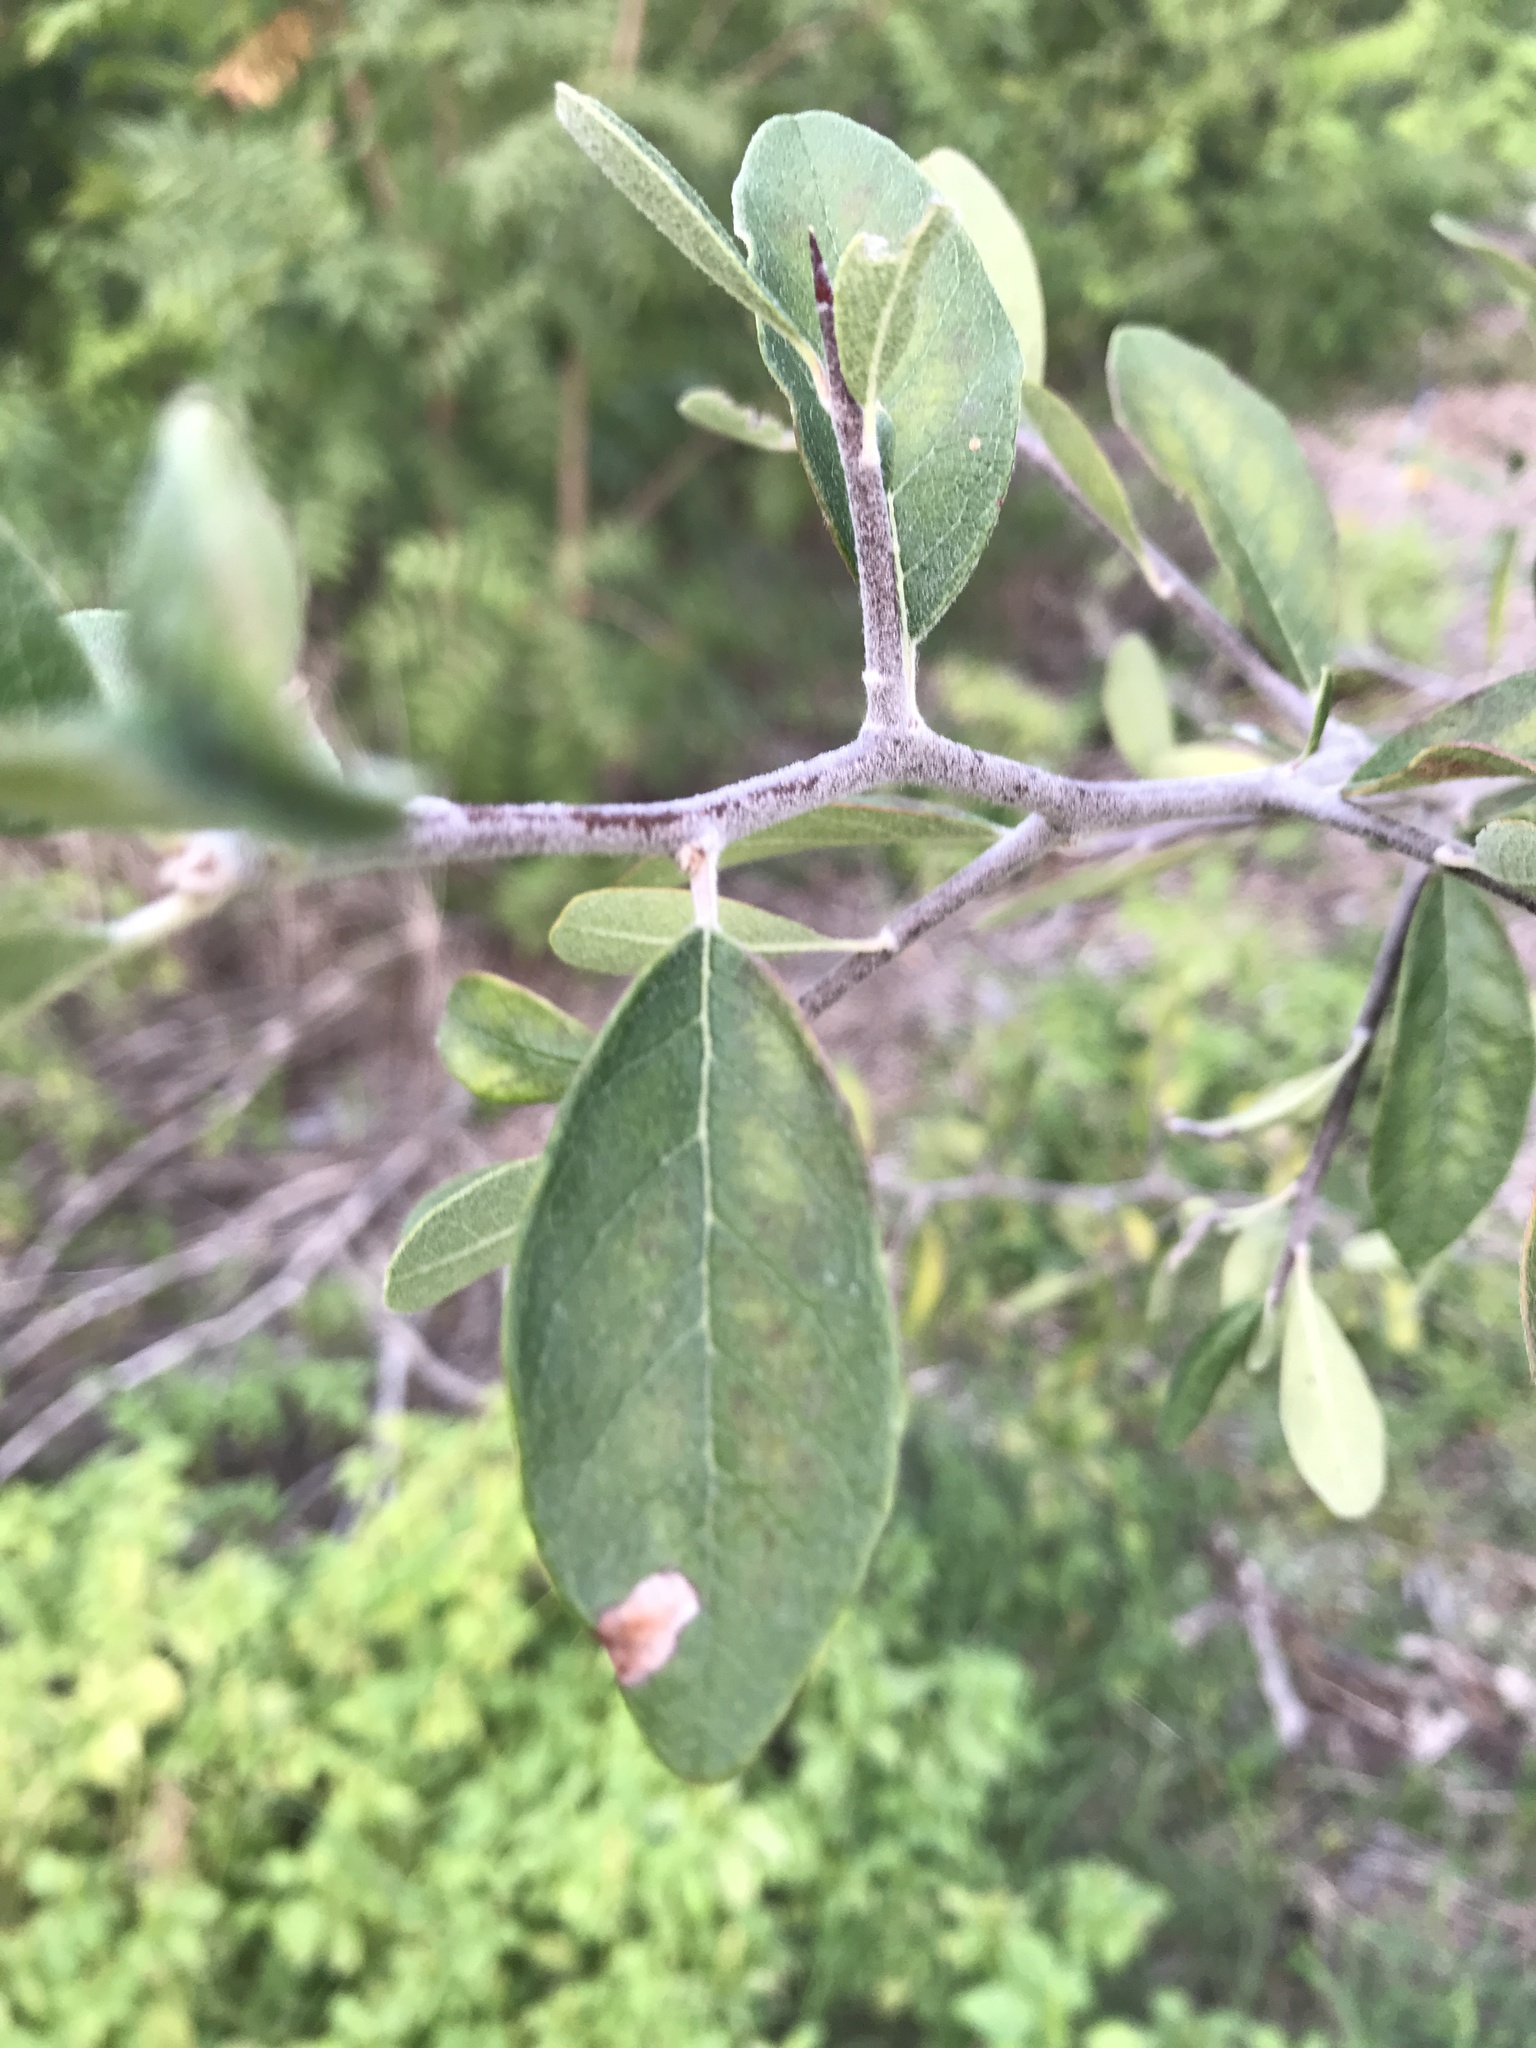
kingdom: Plantae
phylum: Tracheophyta
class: Magnoliopsida
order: Ericales
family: Sapotaceae
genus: Sideroxylon
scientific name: Sideroxylon lanuginosum
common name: Chittamwood
